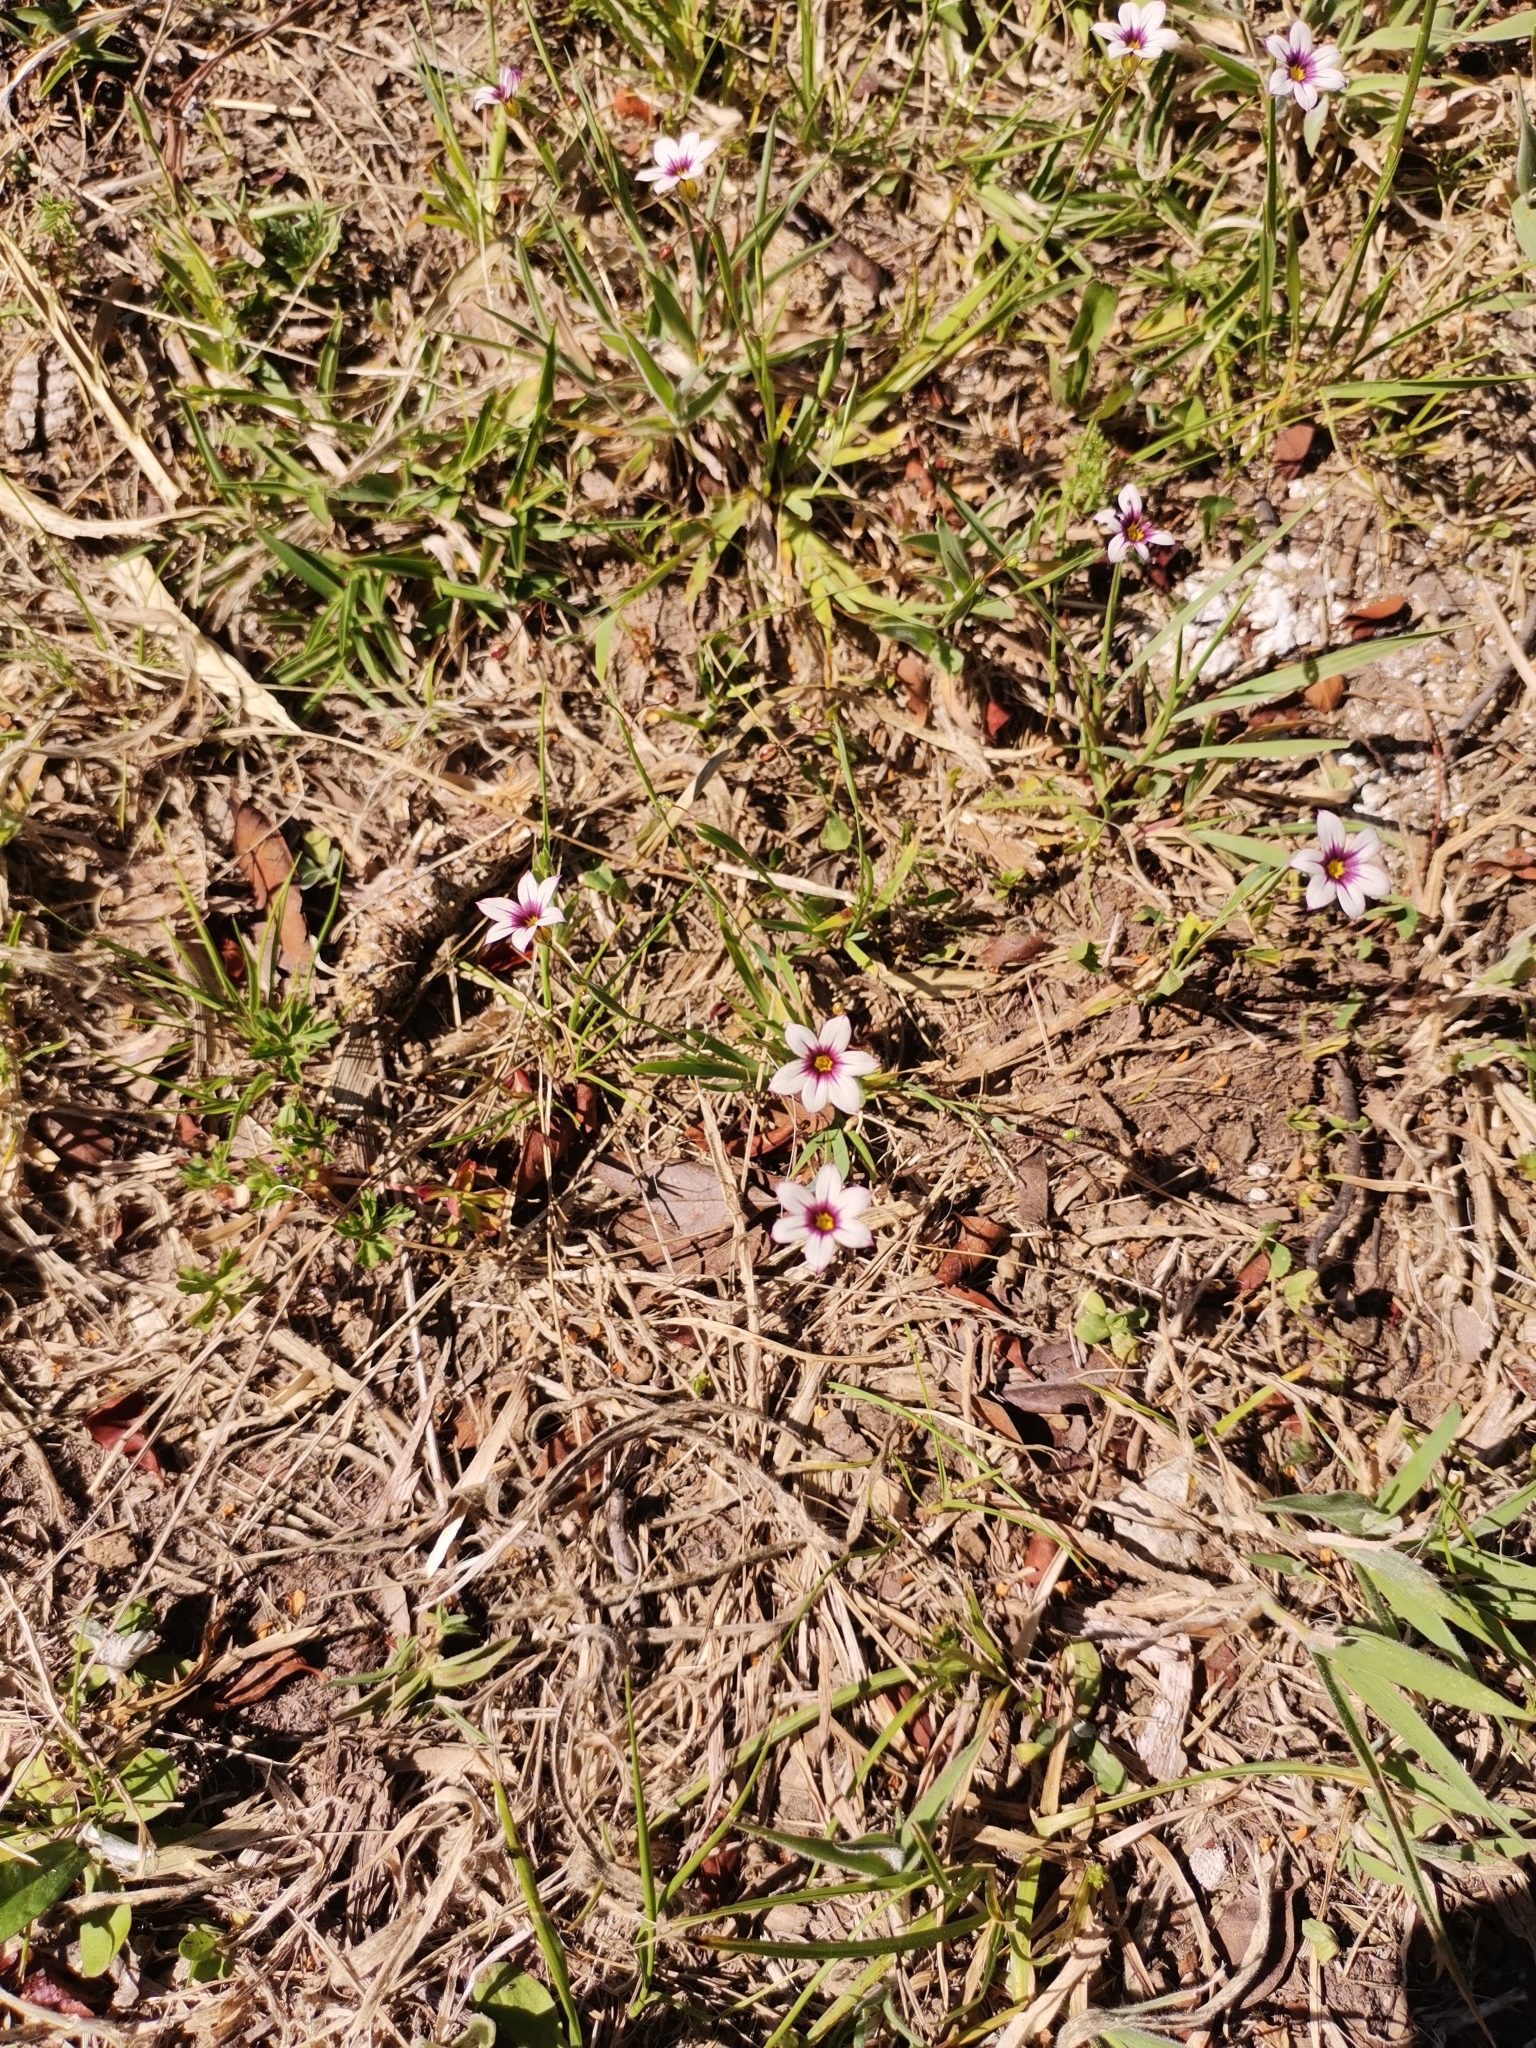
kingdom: Plantae
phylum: Tracheophyta
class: Liliopsida
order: Asparagales
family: Iridaceae
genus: Sisyrinchium
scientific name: Sisyrinchium micranthum
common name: Bermuda pigroot
